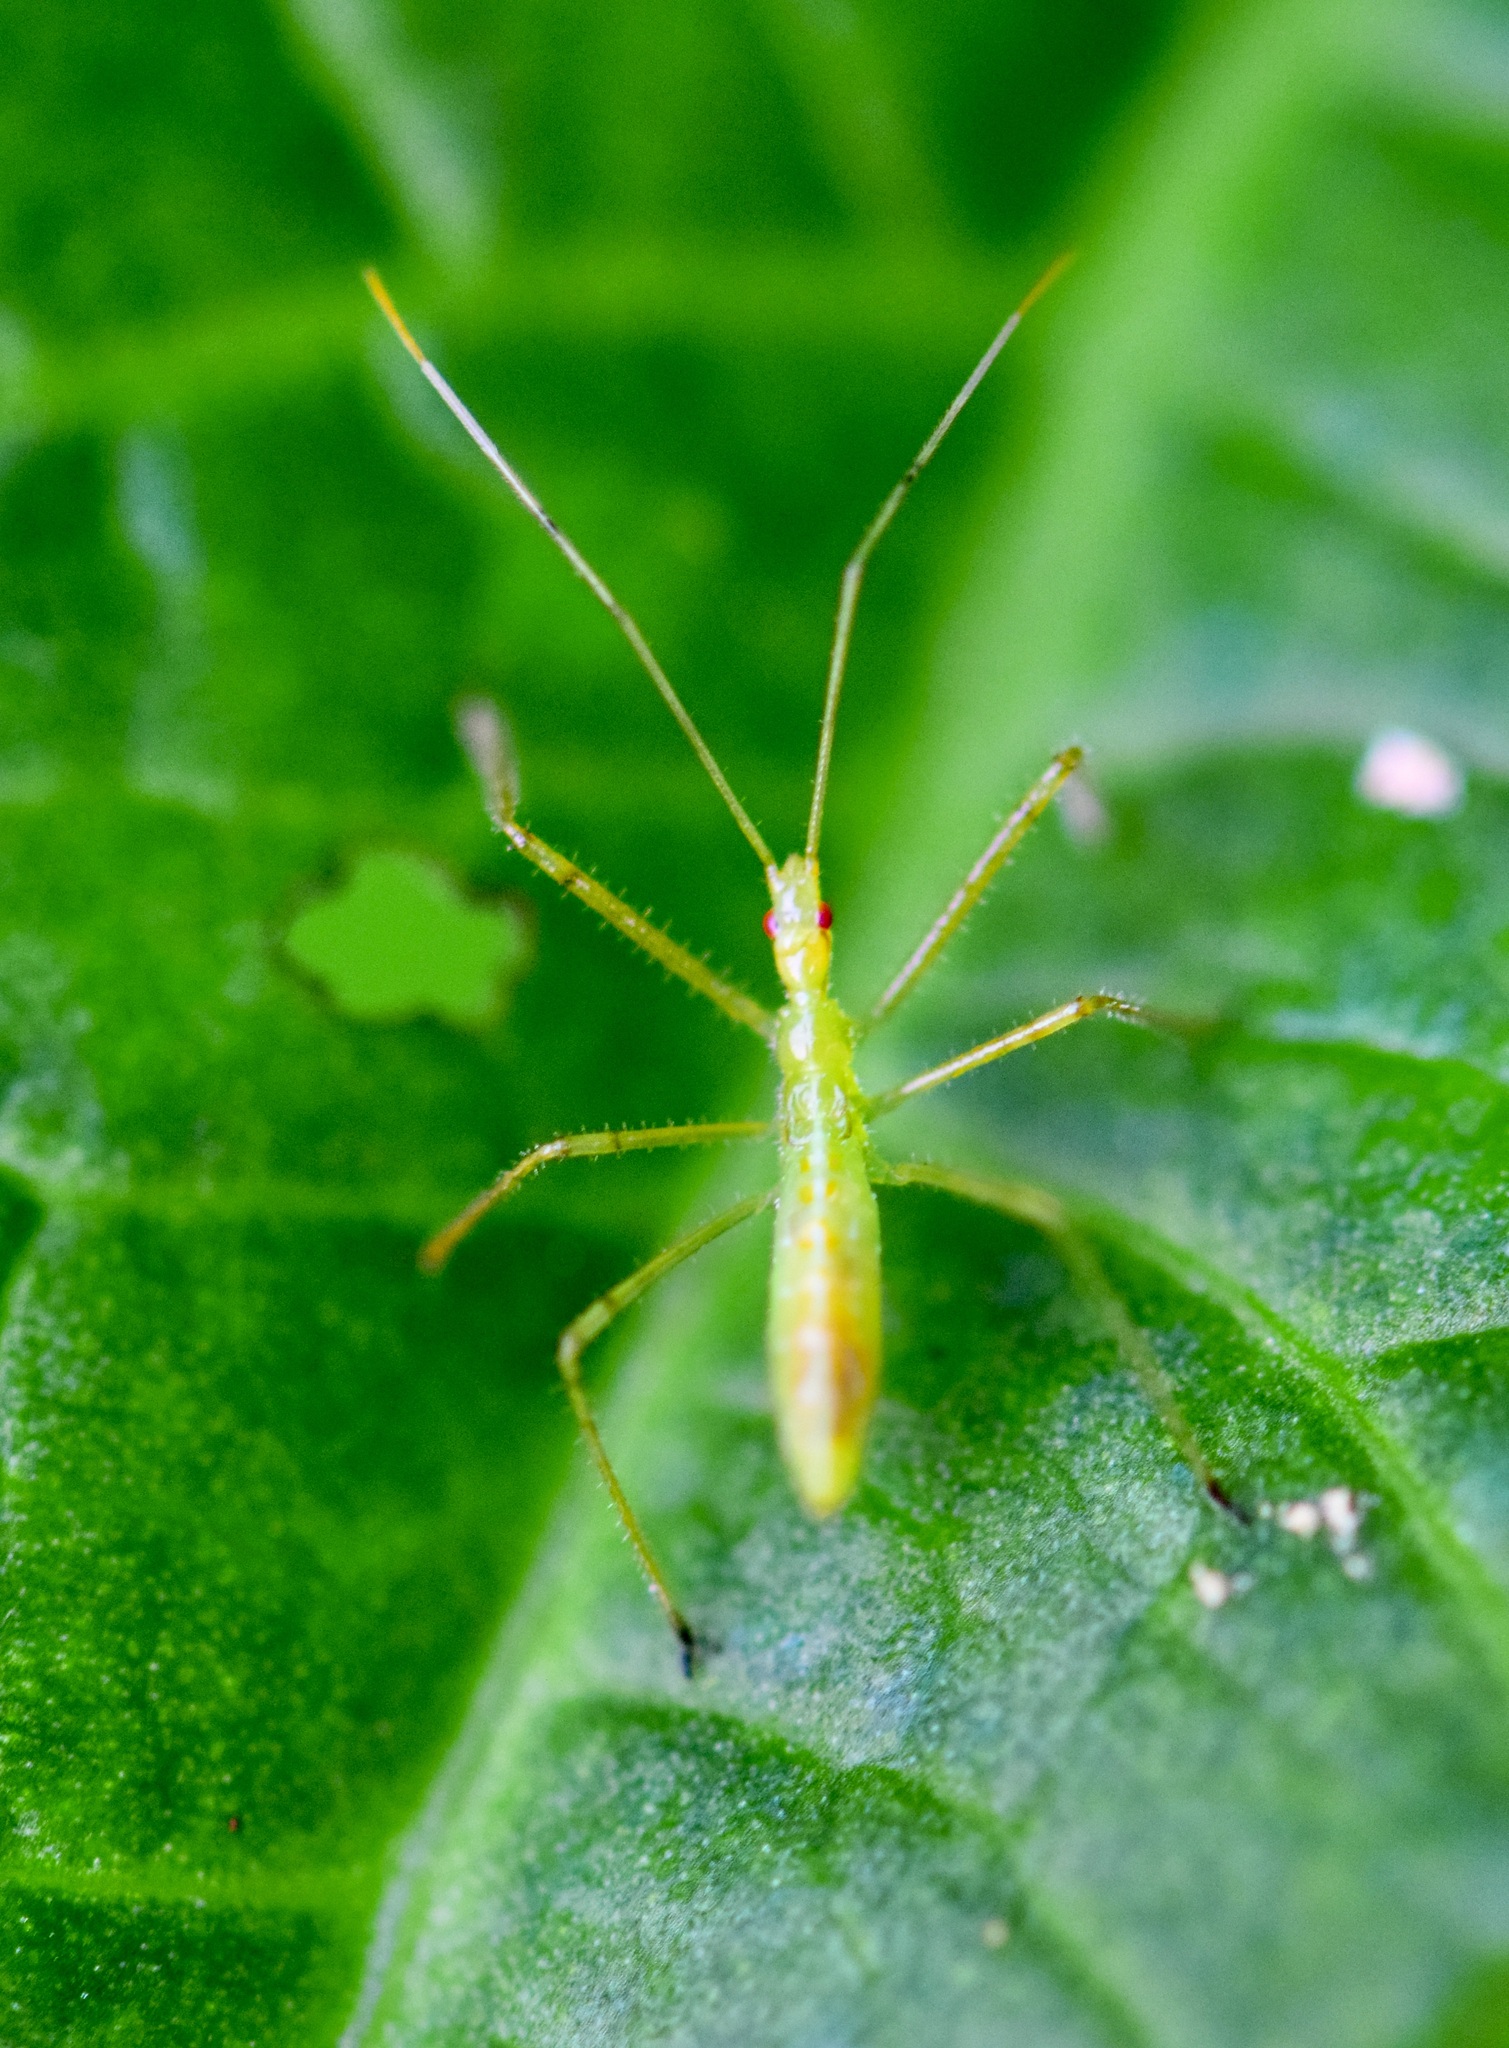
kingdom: Animalia
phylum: Arthropoda
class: Insecta
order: Hemiptera
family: Reduviidae
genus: Zelus
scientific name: Zelus luridus
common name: Pale green assassin bug
